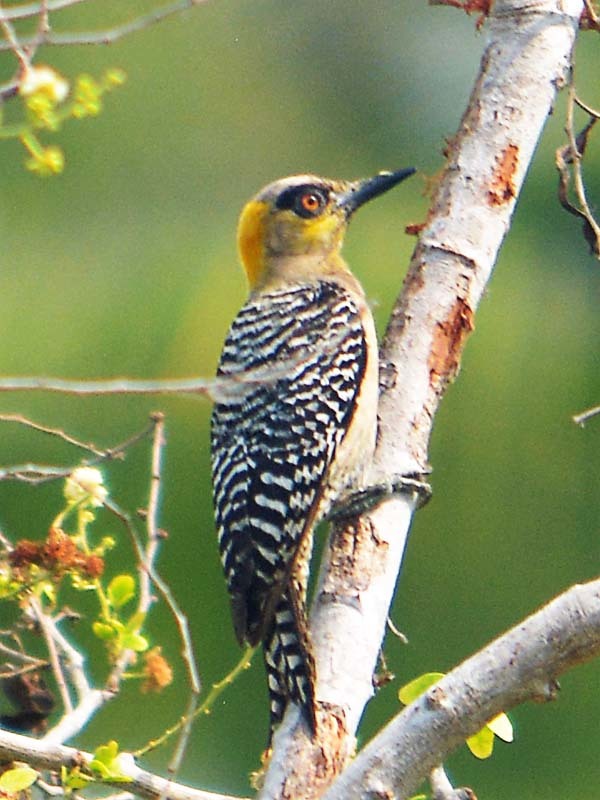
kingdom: Animalia
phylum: Chordata
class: Aves
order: Piciformes
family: Picidae
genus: Melanerpes
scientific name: Melanerpes chrysogenys
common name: Golden-cheeked woodpecker
